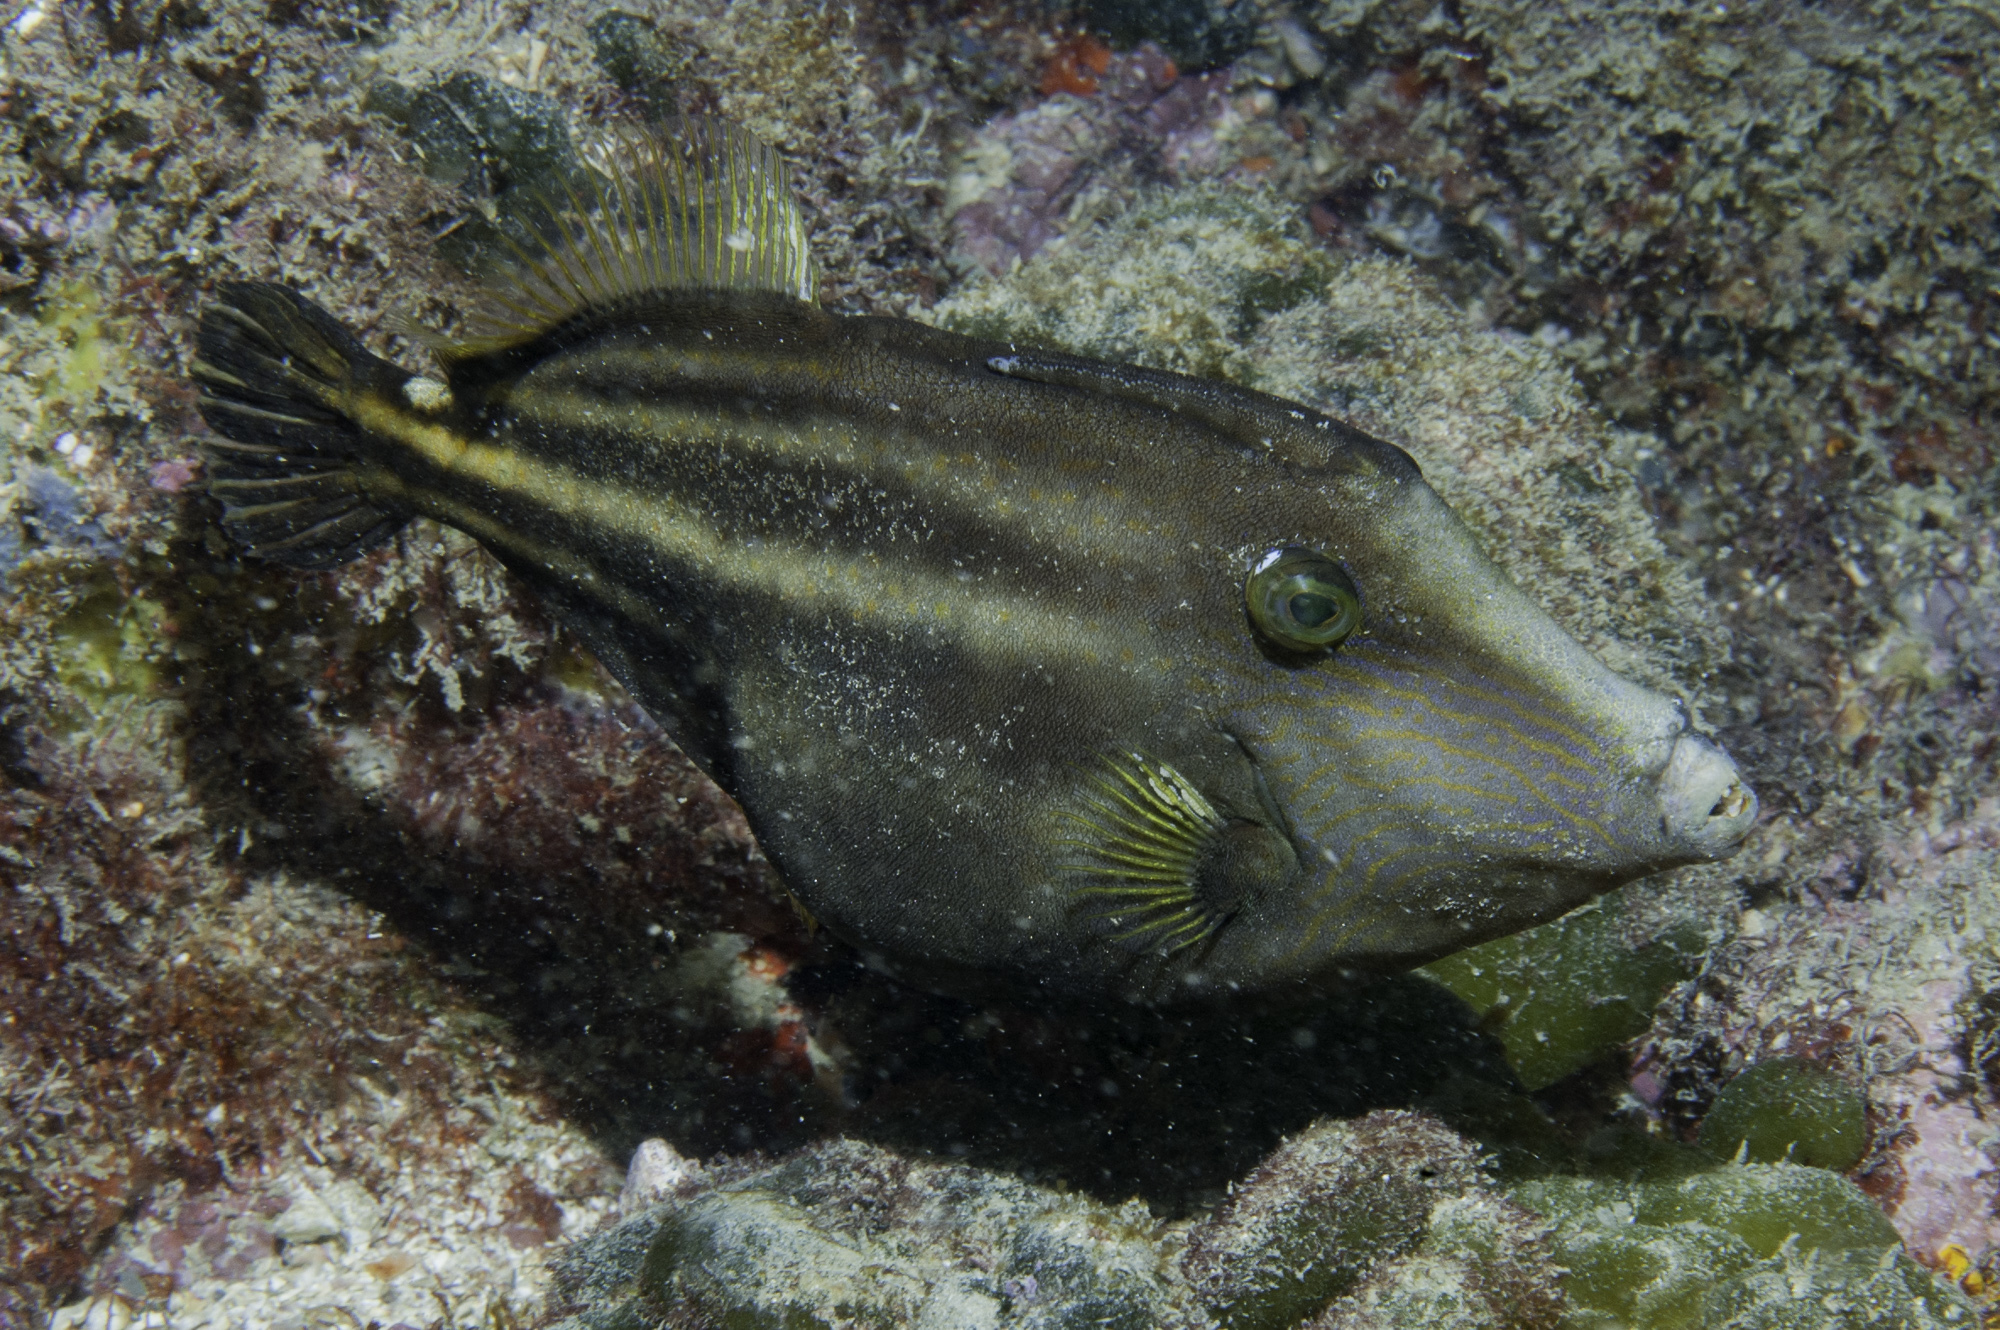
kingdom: Animalia
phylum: Chordata
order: Tetraodontiformes
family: Monacanthidae
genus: Cantherhines
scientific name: Cantherhines pullus
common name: Orangespotted filefish
